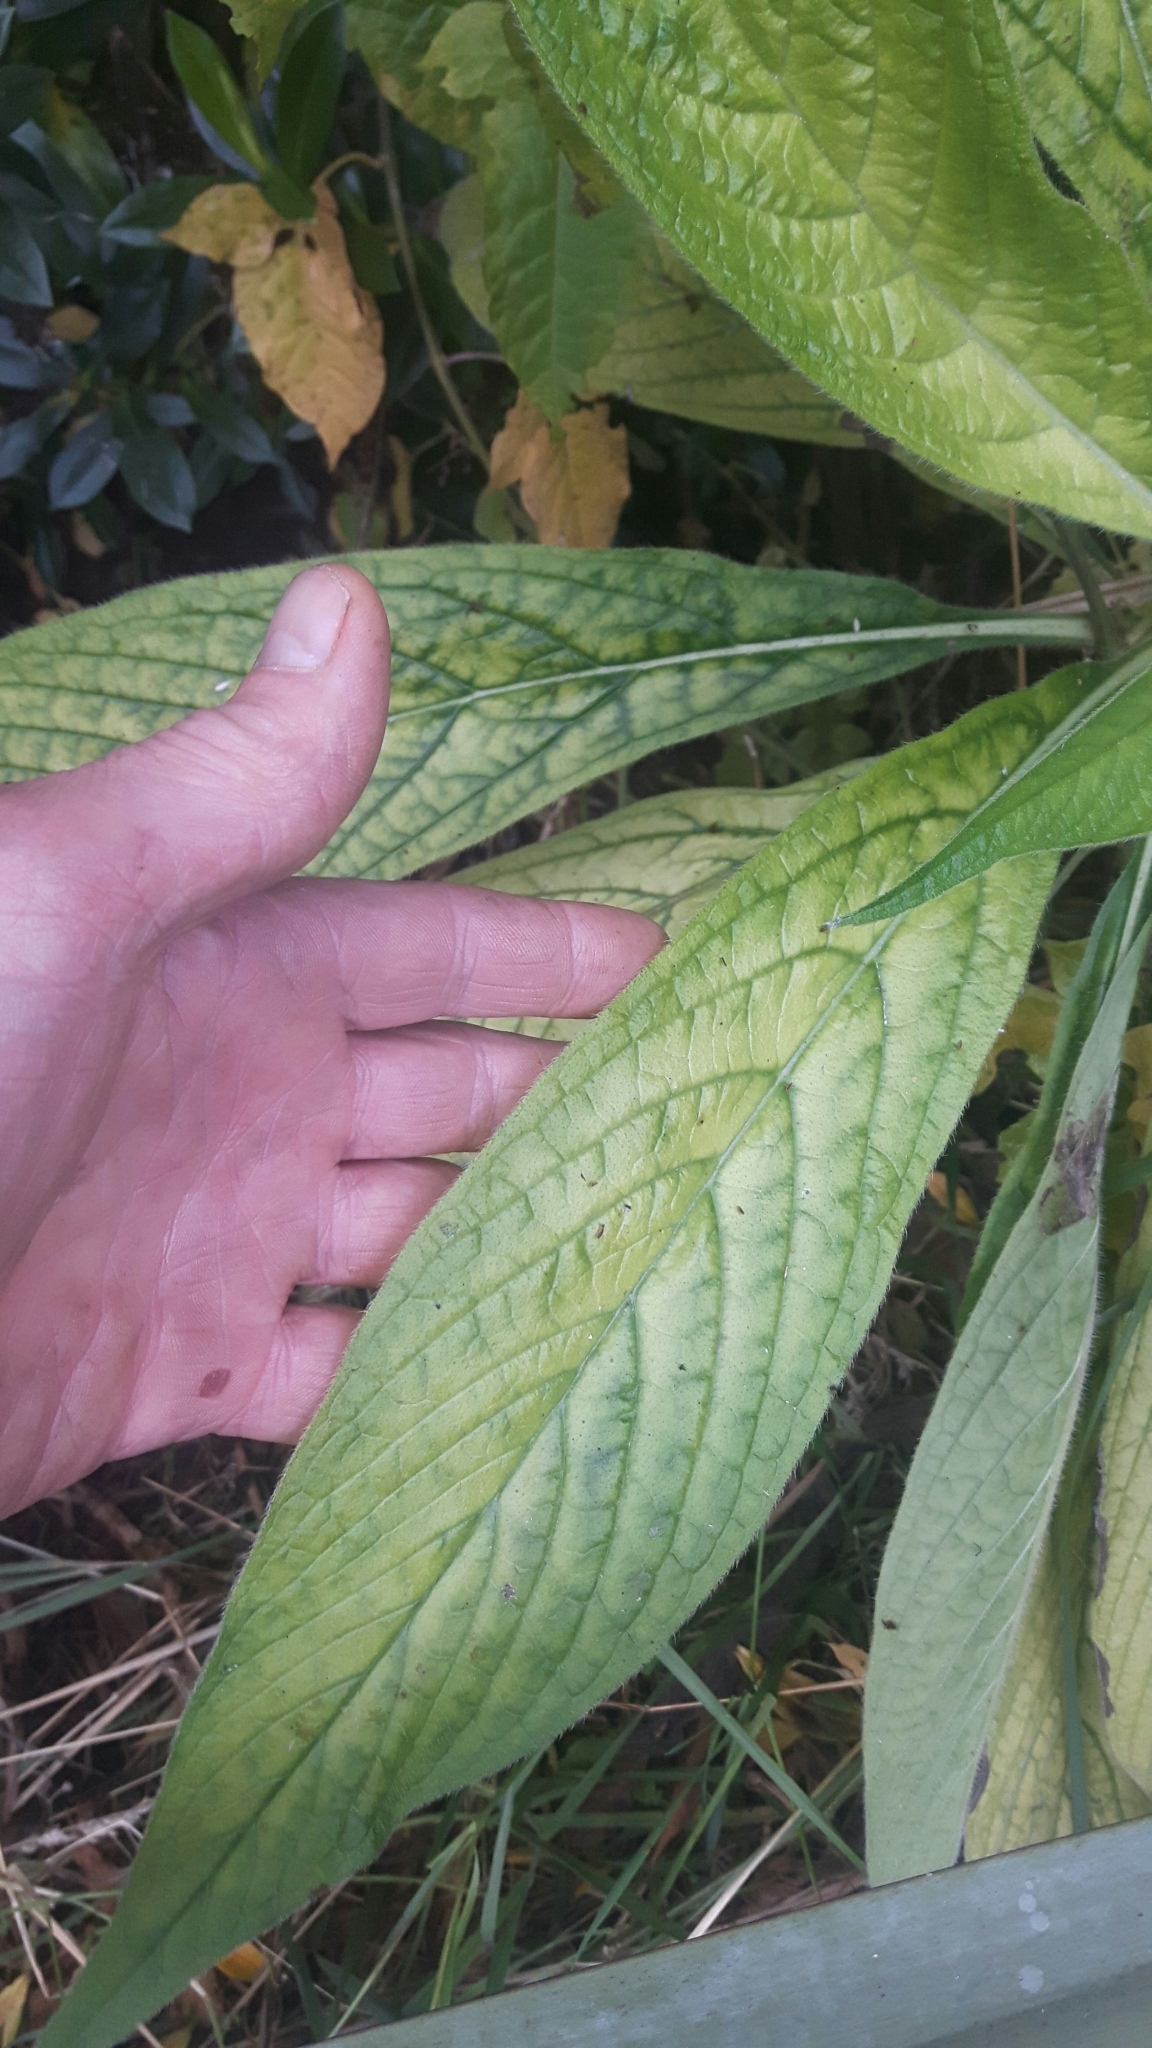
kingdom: Plantae
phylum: Tracheophyta
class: Magnoliopsida
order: Boraginales
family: Boraginaceae
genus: Echium
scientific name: Echium pininana
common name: Giant viper's-bugloss
